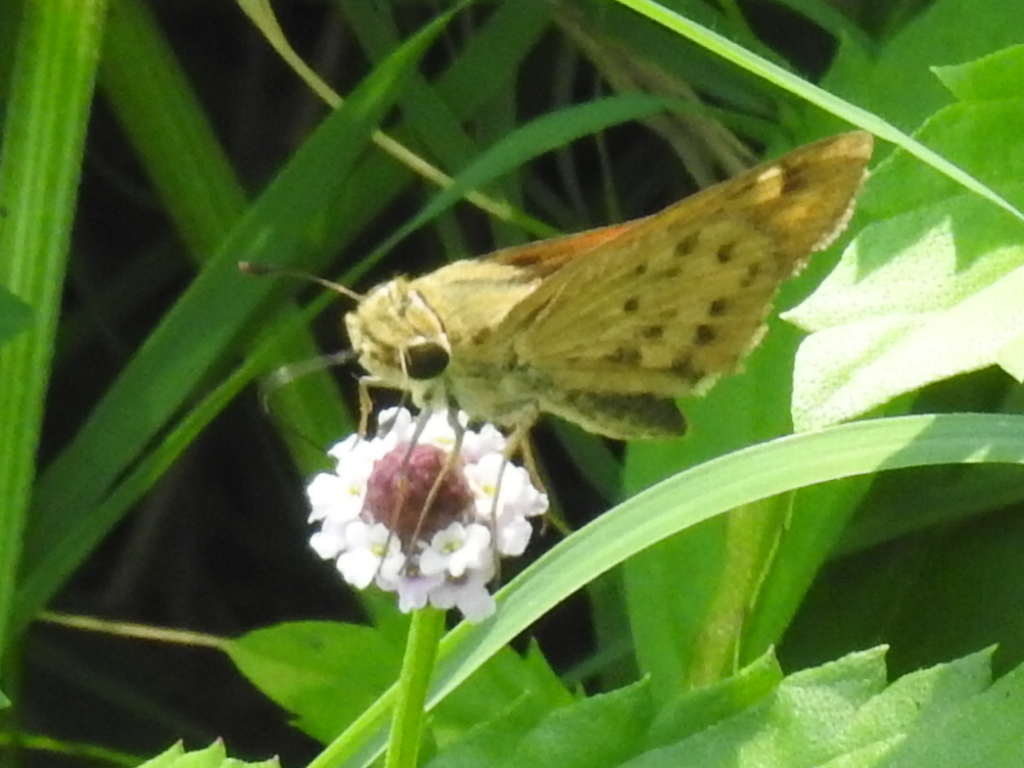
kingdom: Animalia
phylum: Arthropoda
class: Insecta
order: Lepidoptera
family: Hesperiidae
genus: Hylephila
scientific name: Hylephila phyleus
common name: Fiery skipper
